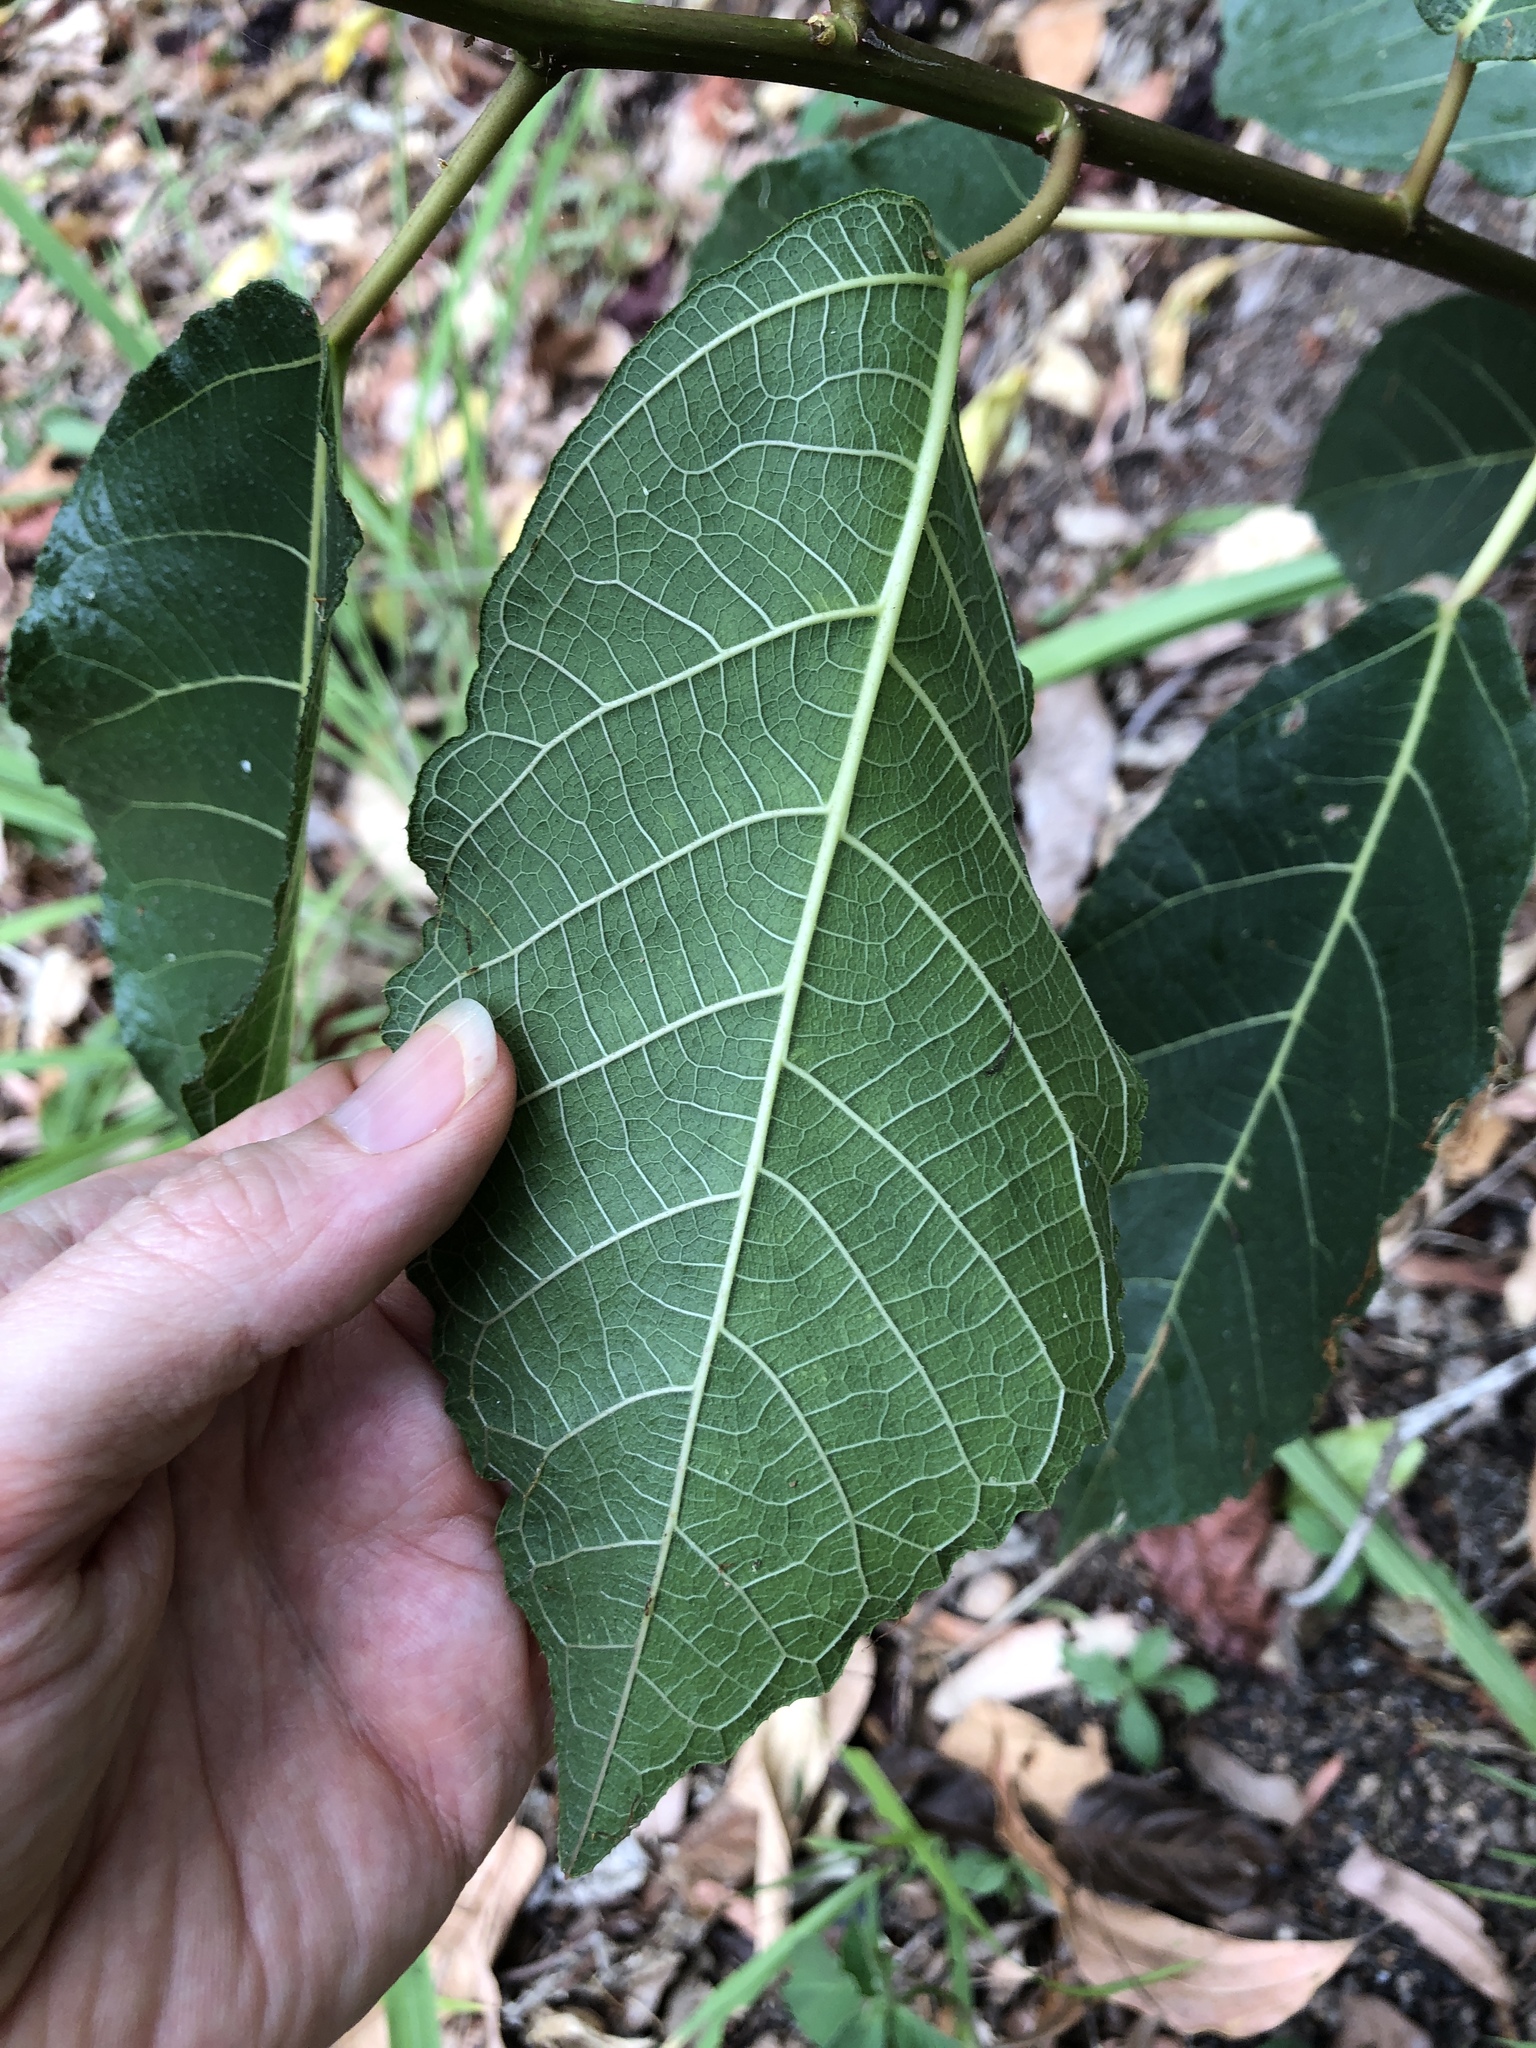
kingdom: Plantae
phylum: Tracheophyta
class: Magnoliopsida
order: Rosales
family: Moraceae
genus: Ficus
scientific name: Ficus opposita
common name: Figwood
